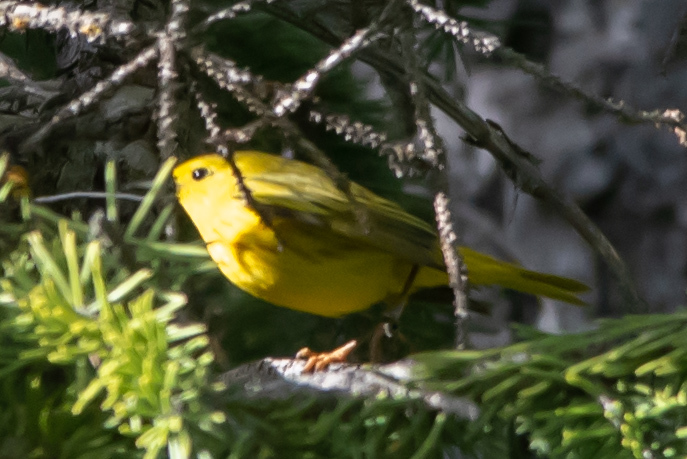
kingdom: Animalia
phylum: Chordata
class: Aves
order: Passeriformes
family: Parulidae
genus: Setophaga
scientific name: Setophaga petechia
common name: Yellow warbler
